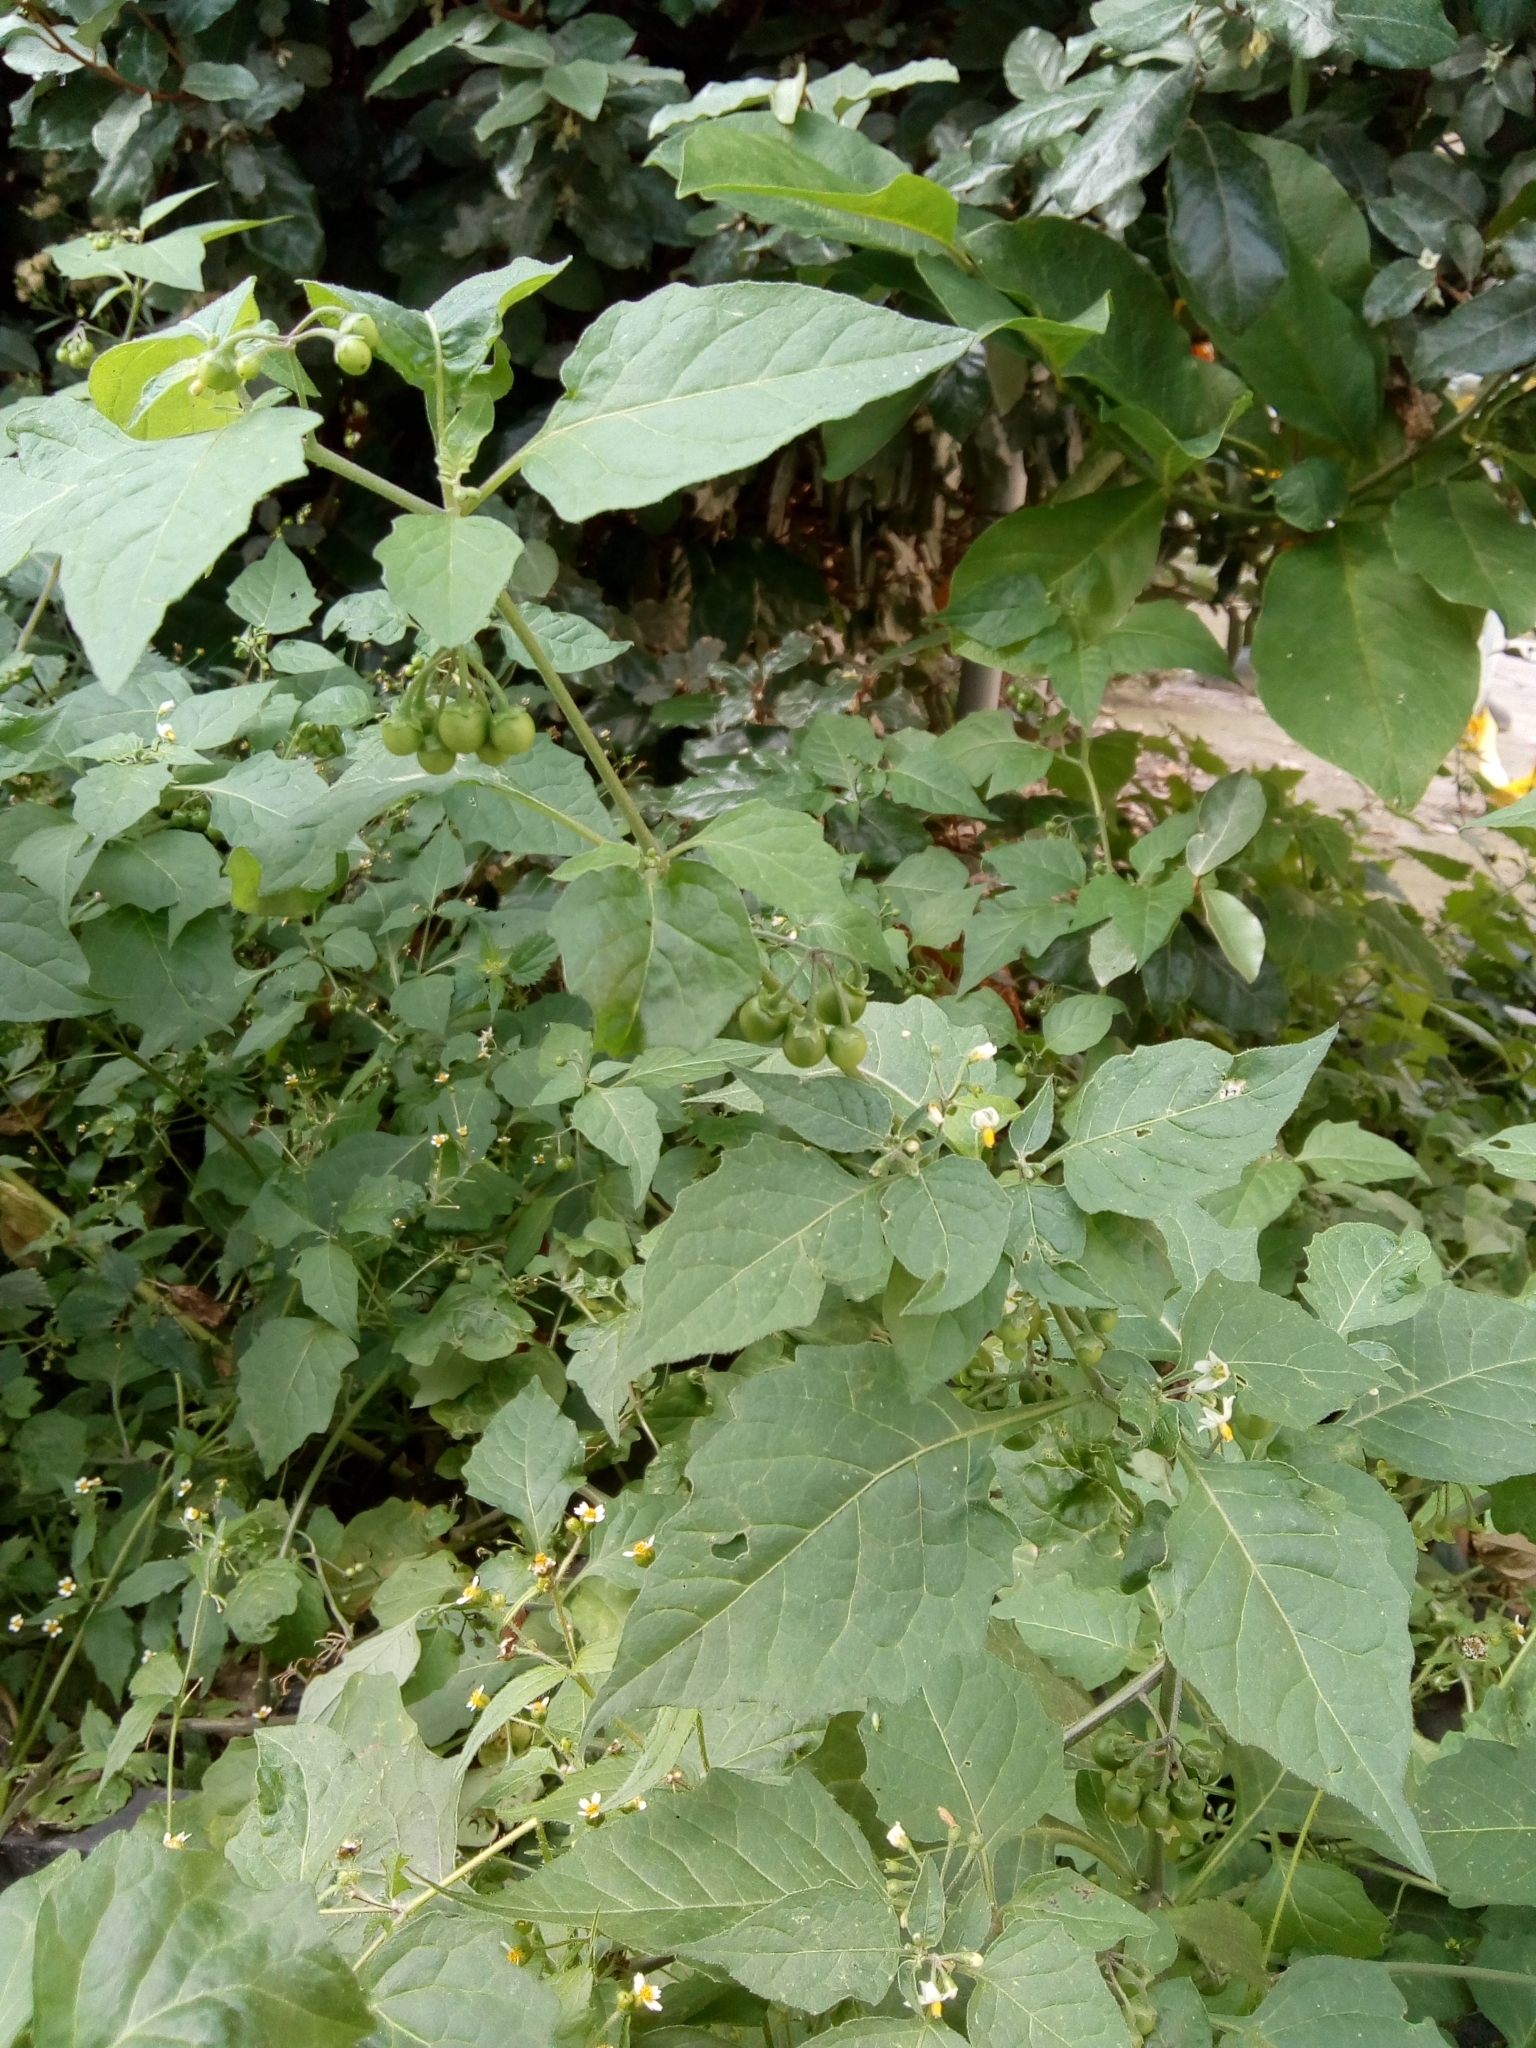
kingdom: Plantae
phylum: Tracheophyta
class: Magnoliopsida
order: Solanales
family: Solanaceae
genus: Solanum
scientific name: Solanum nigrum
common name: Black nightshade
